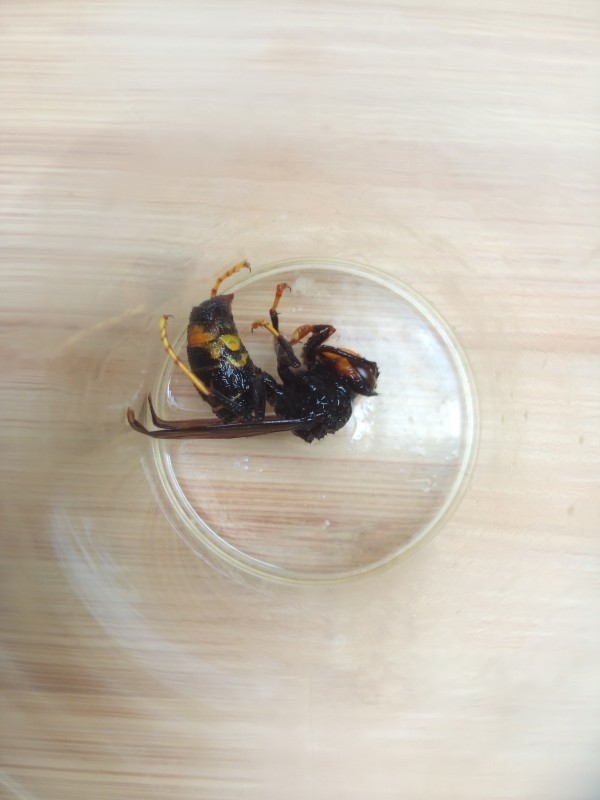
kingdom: Animalia
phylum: Arthropoda
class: Insecta
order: Hymenoptera
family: Vespidae
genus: Vespa
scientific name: Vespa velutina
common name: Asian hornet
